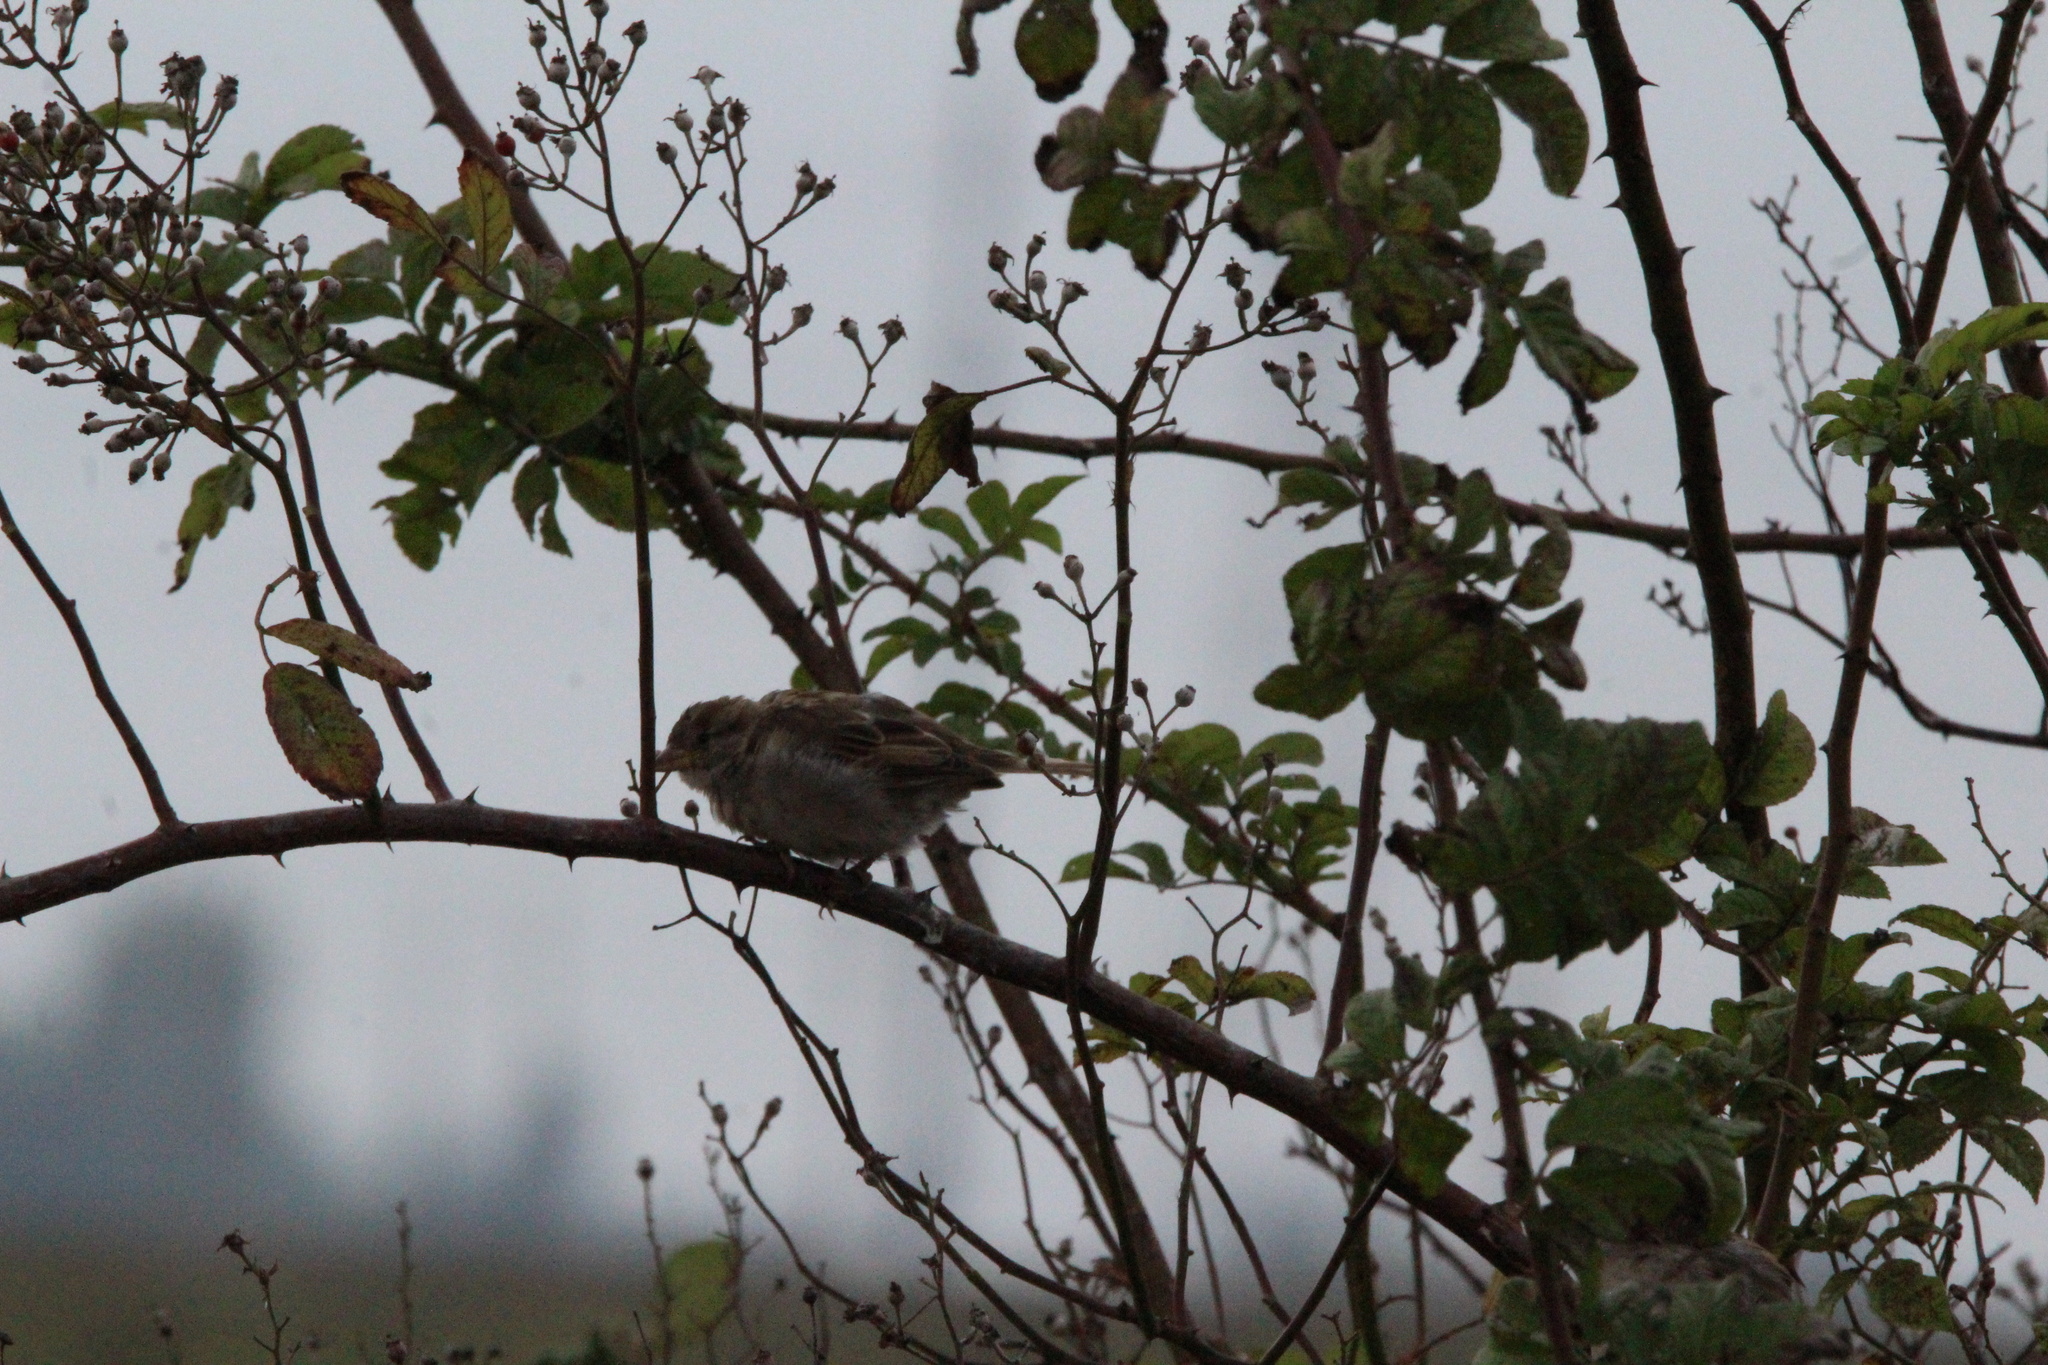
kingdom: Animalia
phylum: Chordata
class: Aves
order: Passeriformes
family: Passeridae
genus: Passer
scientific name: Passer domesticus
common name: House sparrow
